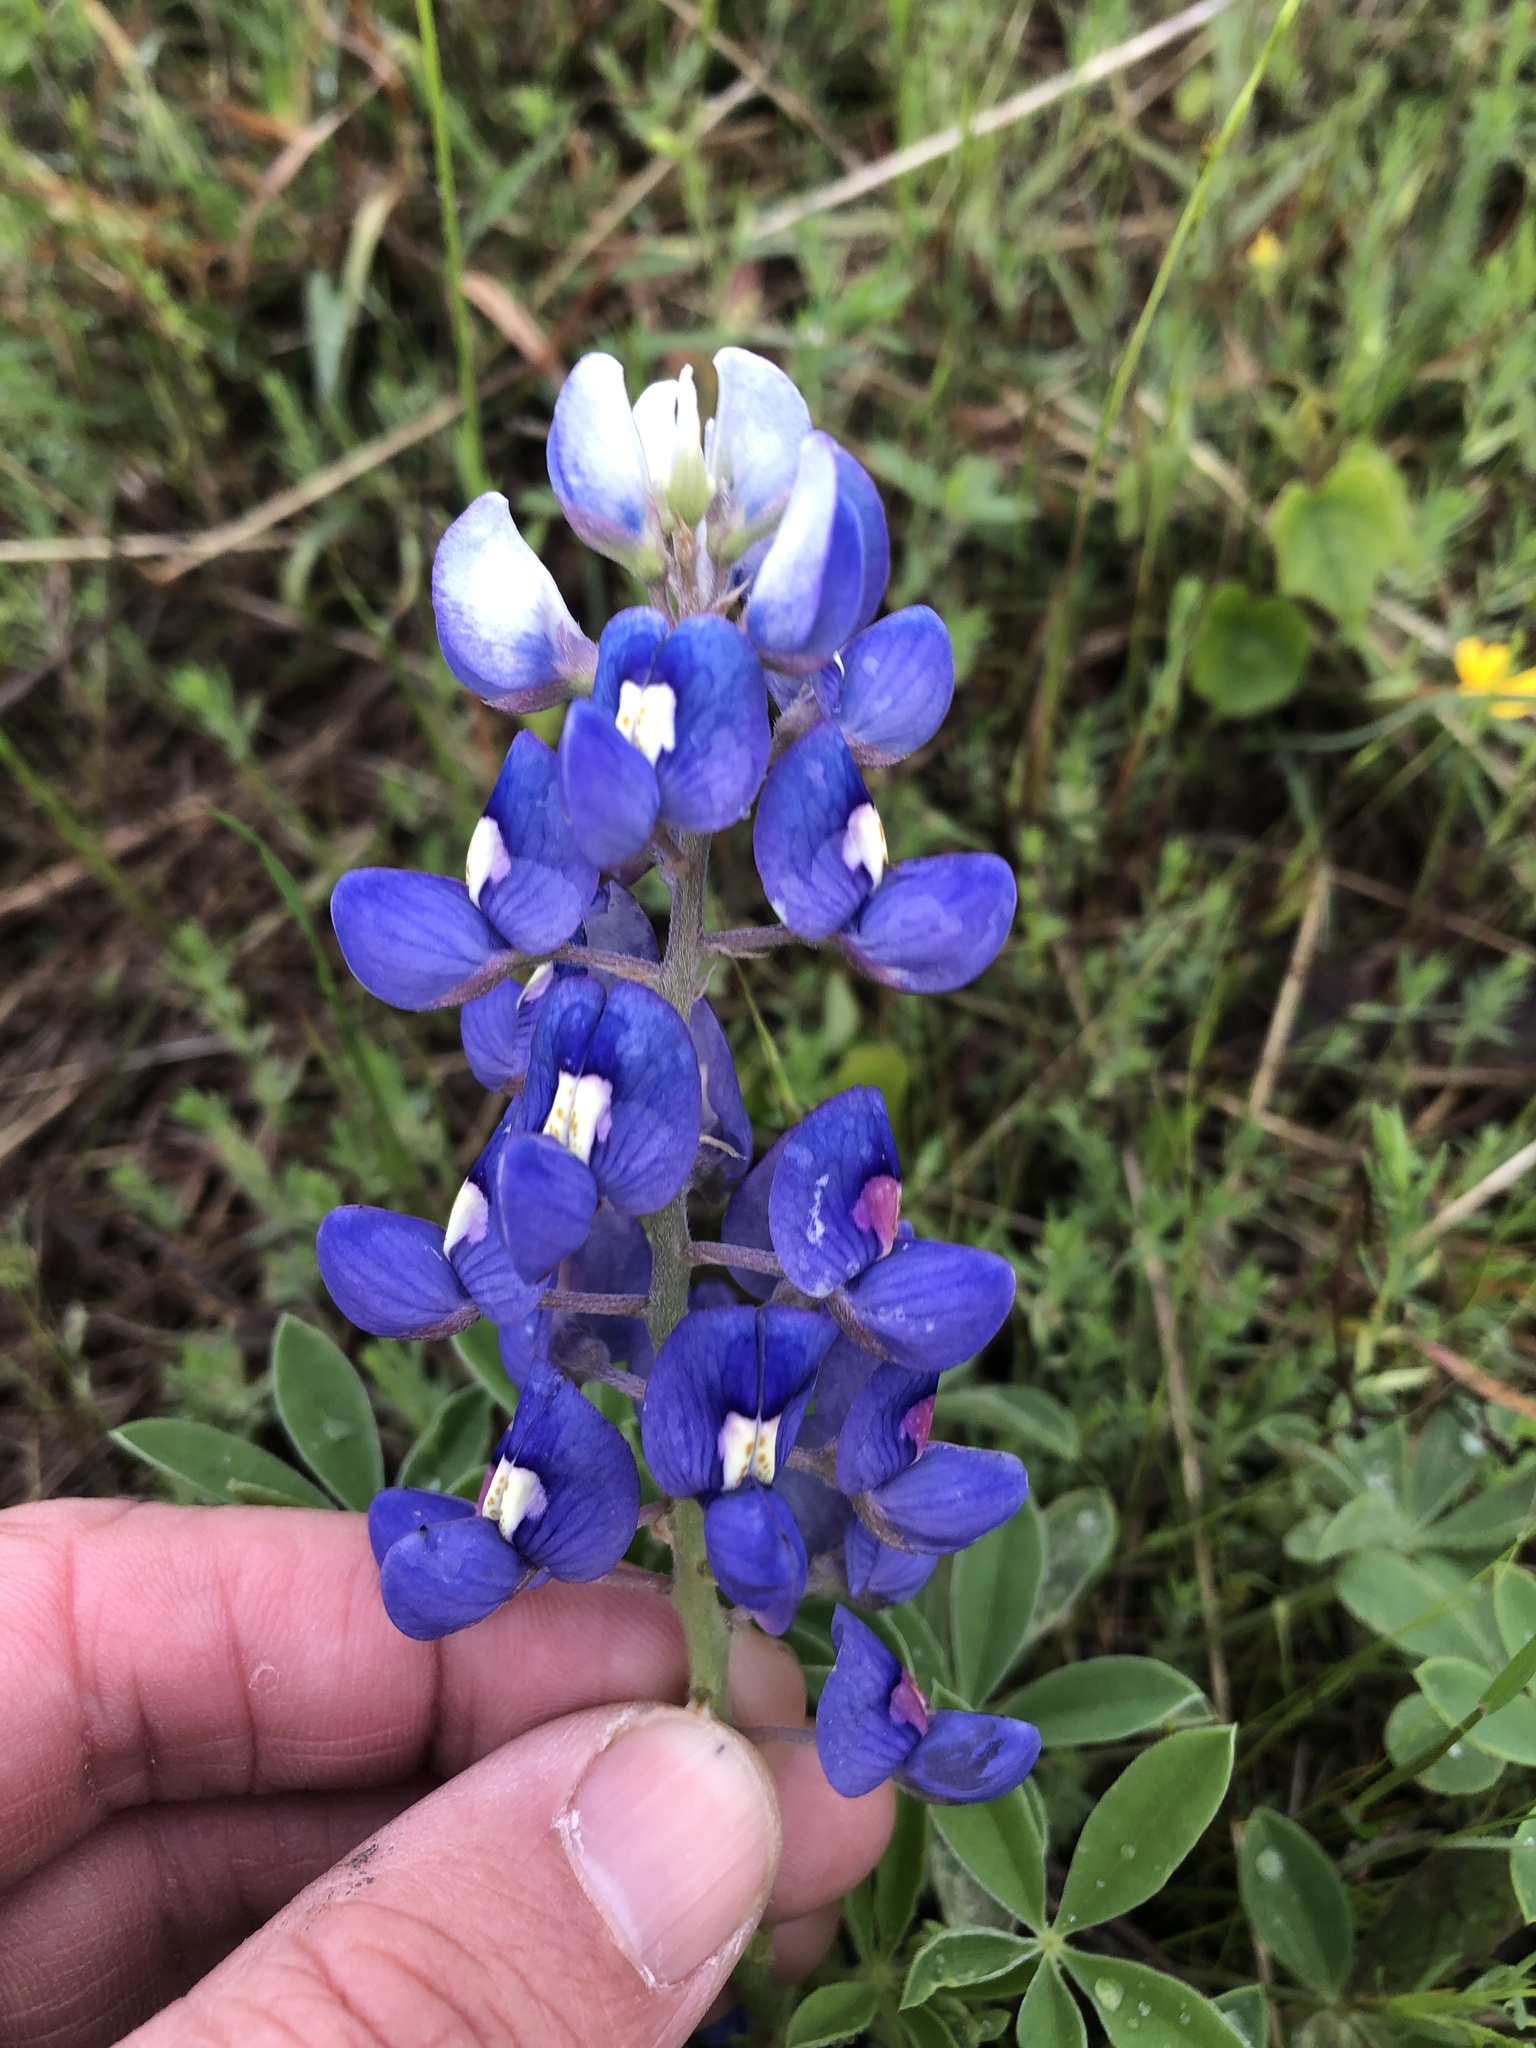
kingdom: Plantae
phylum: Tracheophyta
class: Magnoliopsida
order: Fabales
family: Fabaceae
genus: Lupinus
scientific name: Lupinus texensis
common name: Texas bluebonnet
